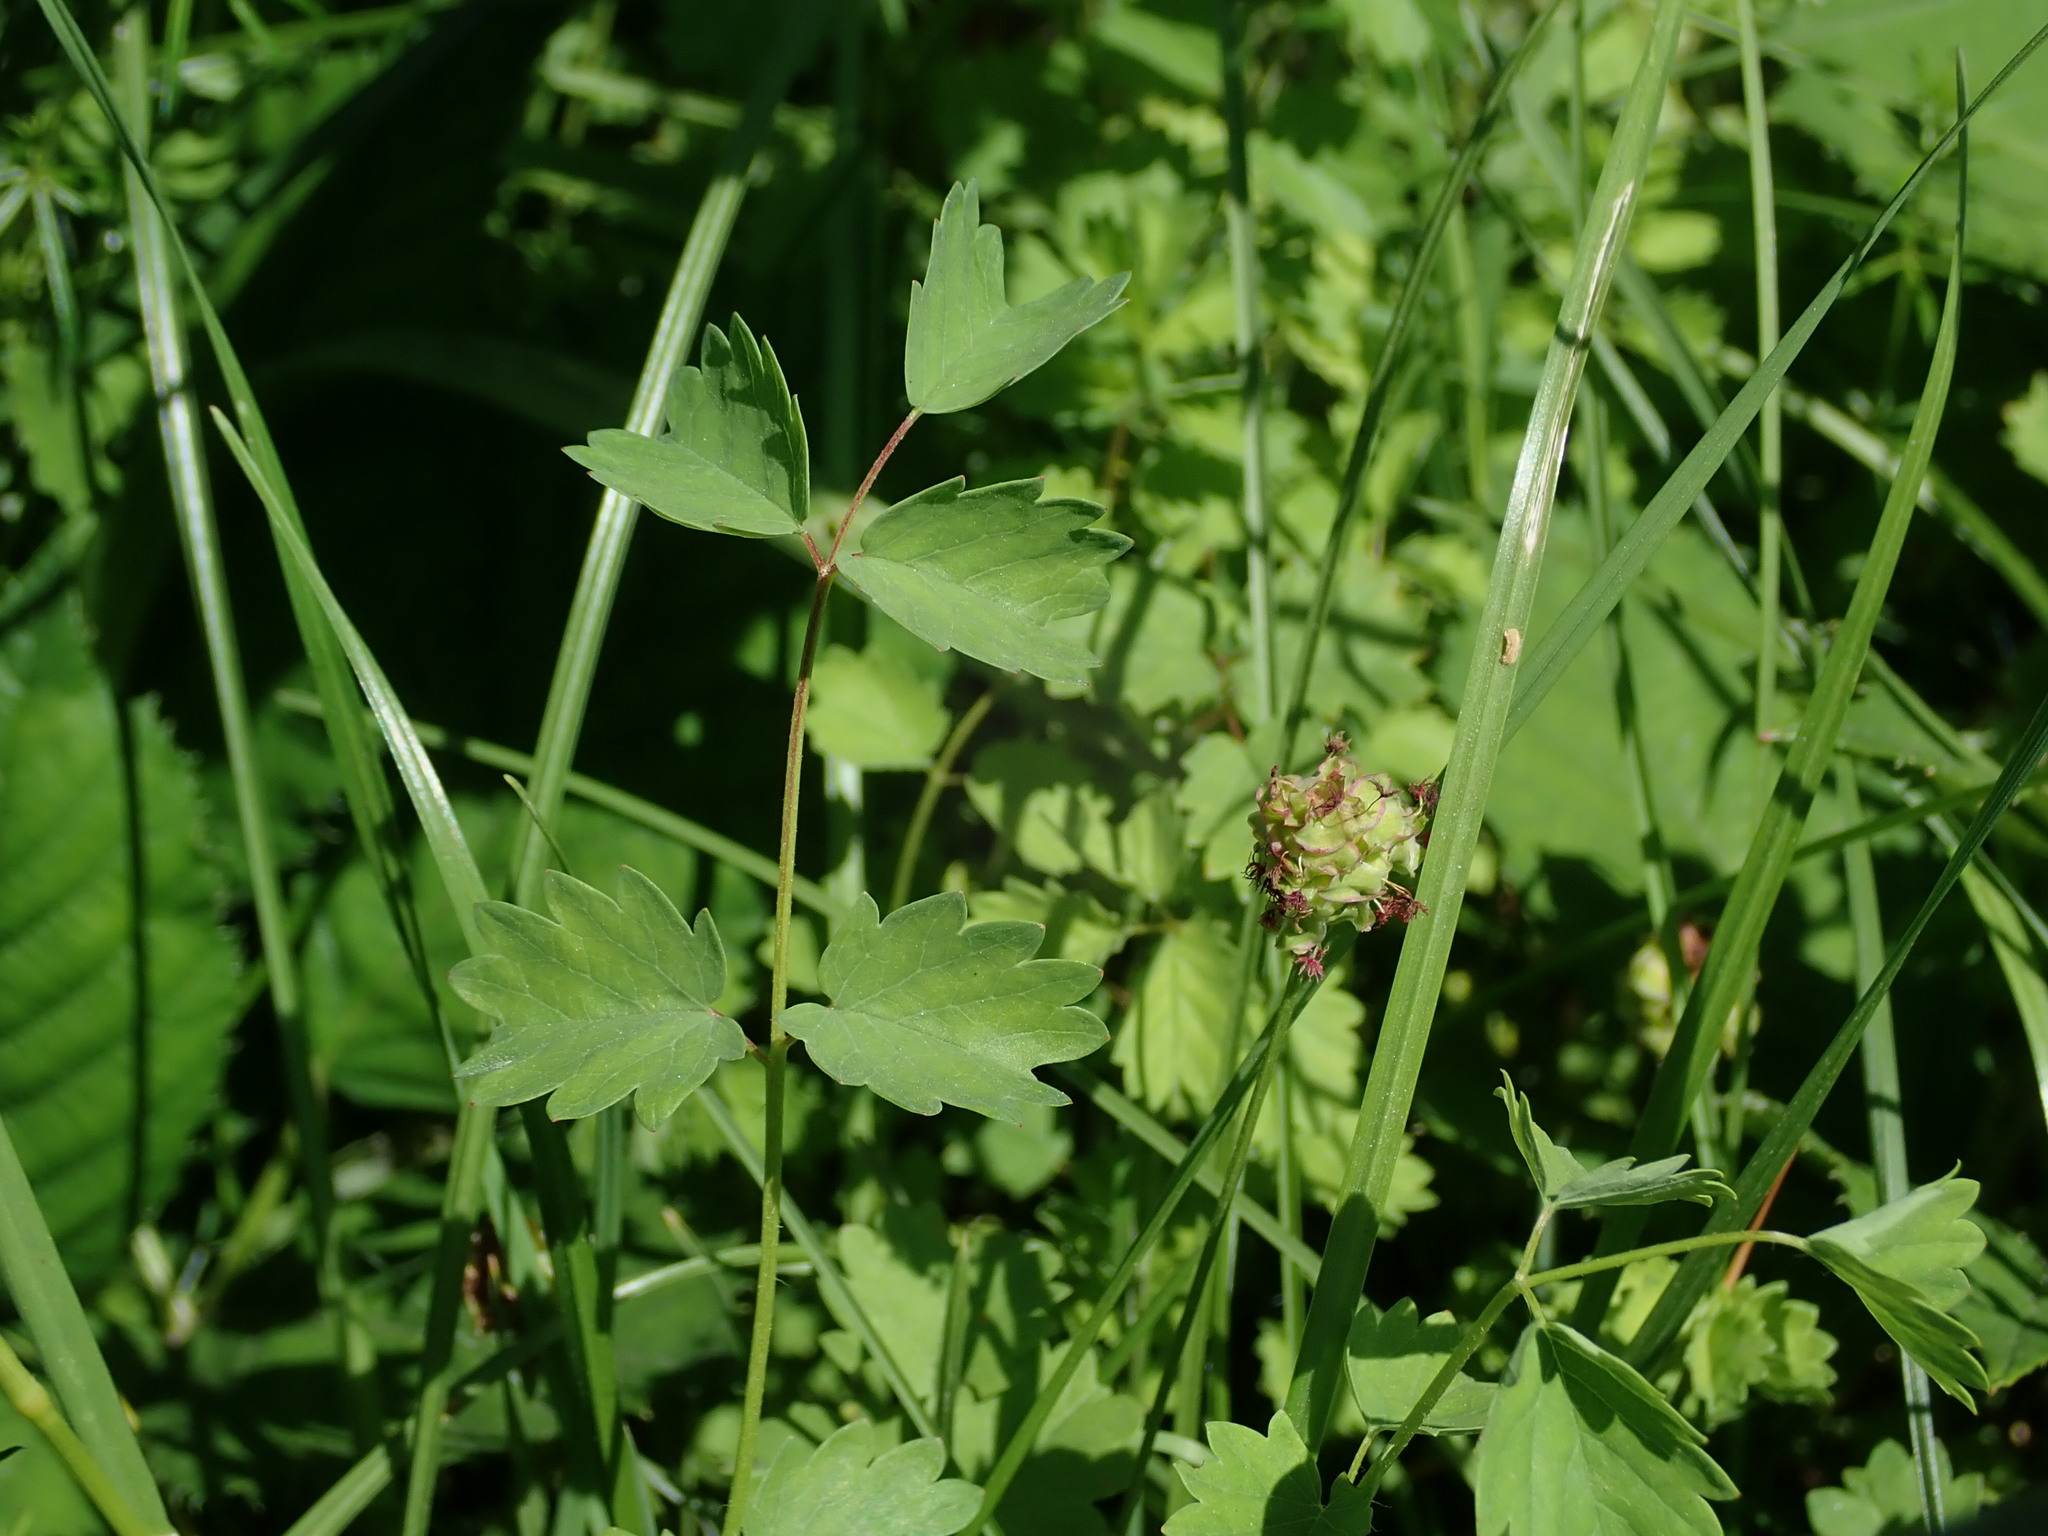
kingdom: Plantae
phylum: Tracheophyta
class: Magnoliopsida
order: Rosales
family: Rosaceae
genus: Poterium
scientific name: Poterium sanguisorba
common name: Salad burnet
